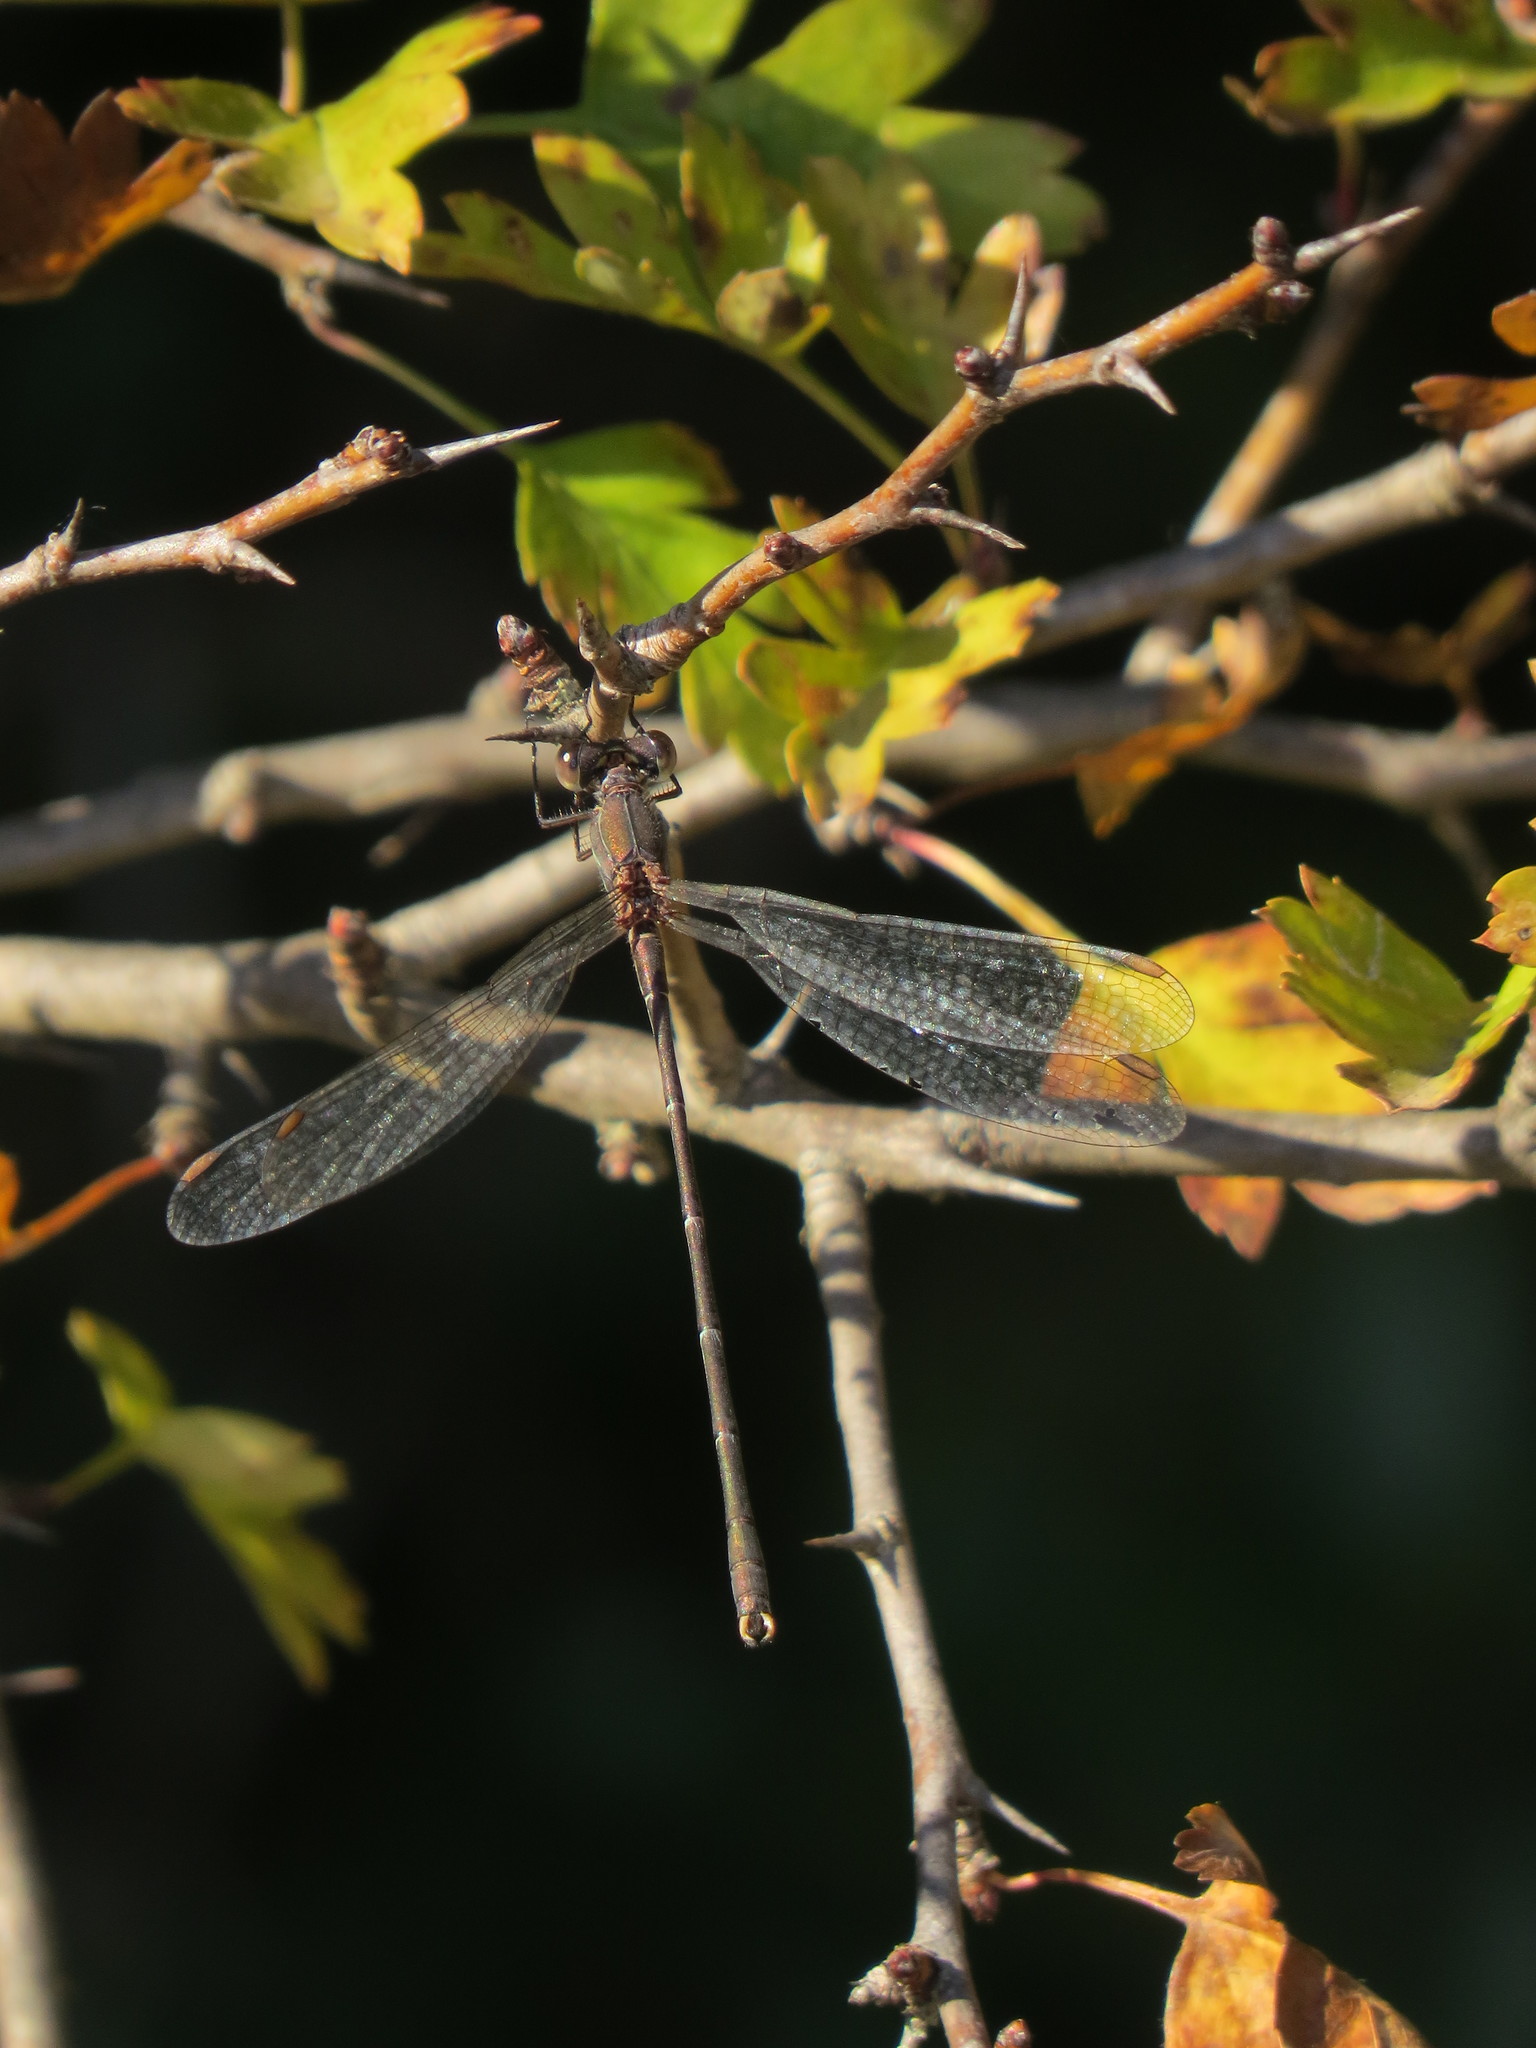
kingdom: Animalia
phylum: Arthropoda
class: Insecta
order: Odonata
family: Lestidae
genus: Chalcolestes
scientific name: Chalcolestes viridis
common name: Green emerald damselfly
